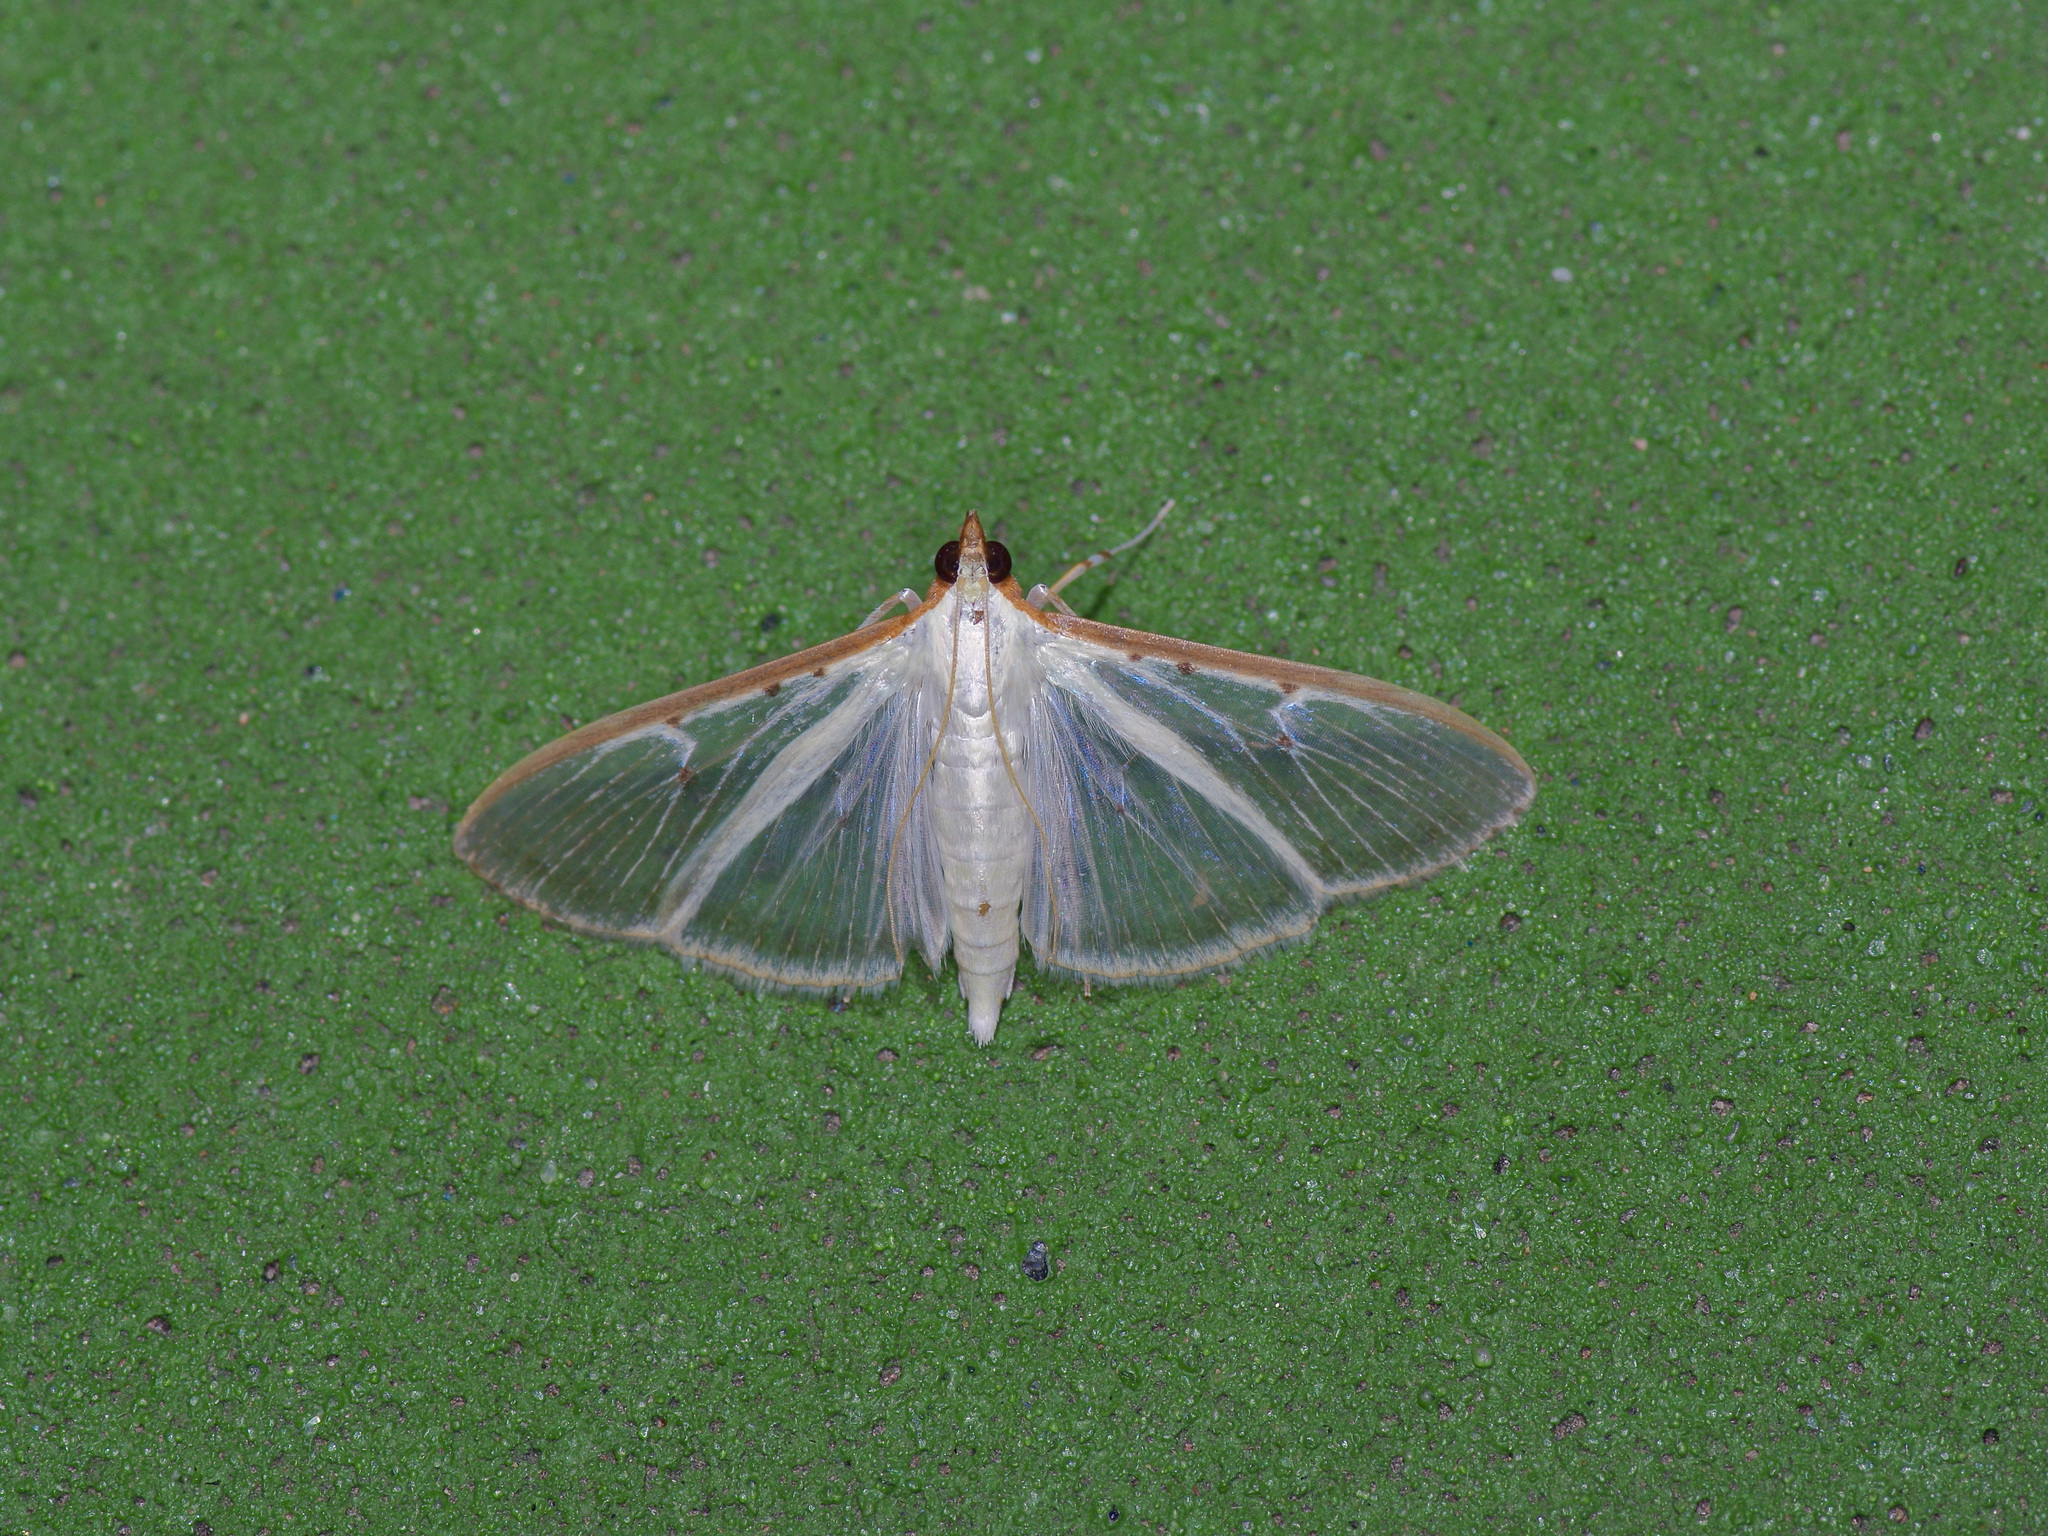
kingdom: Animalia
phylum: Arthropoda
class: Insecta
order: Lepidoptera
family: Crambidae
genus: Palpita
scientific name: Palpita quadristigmalis
